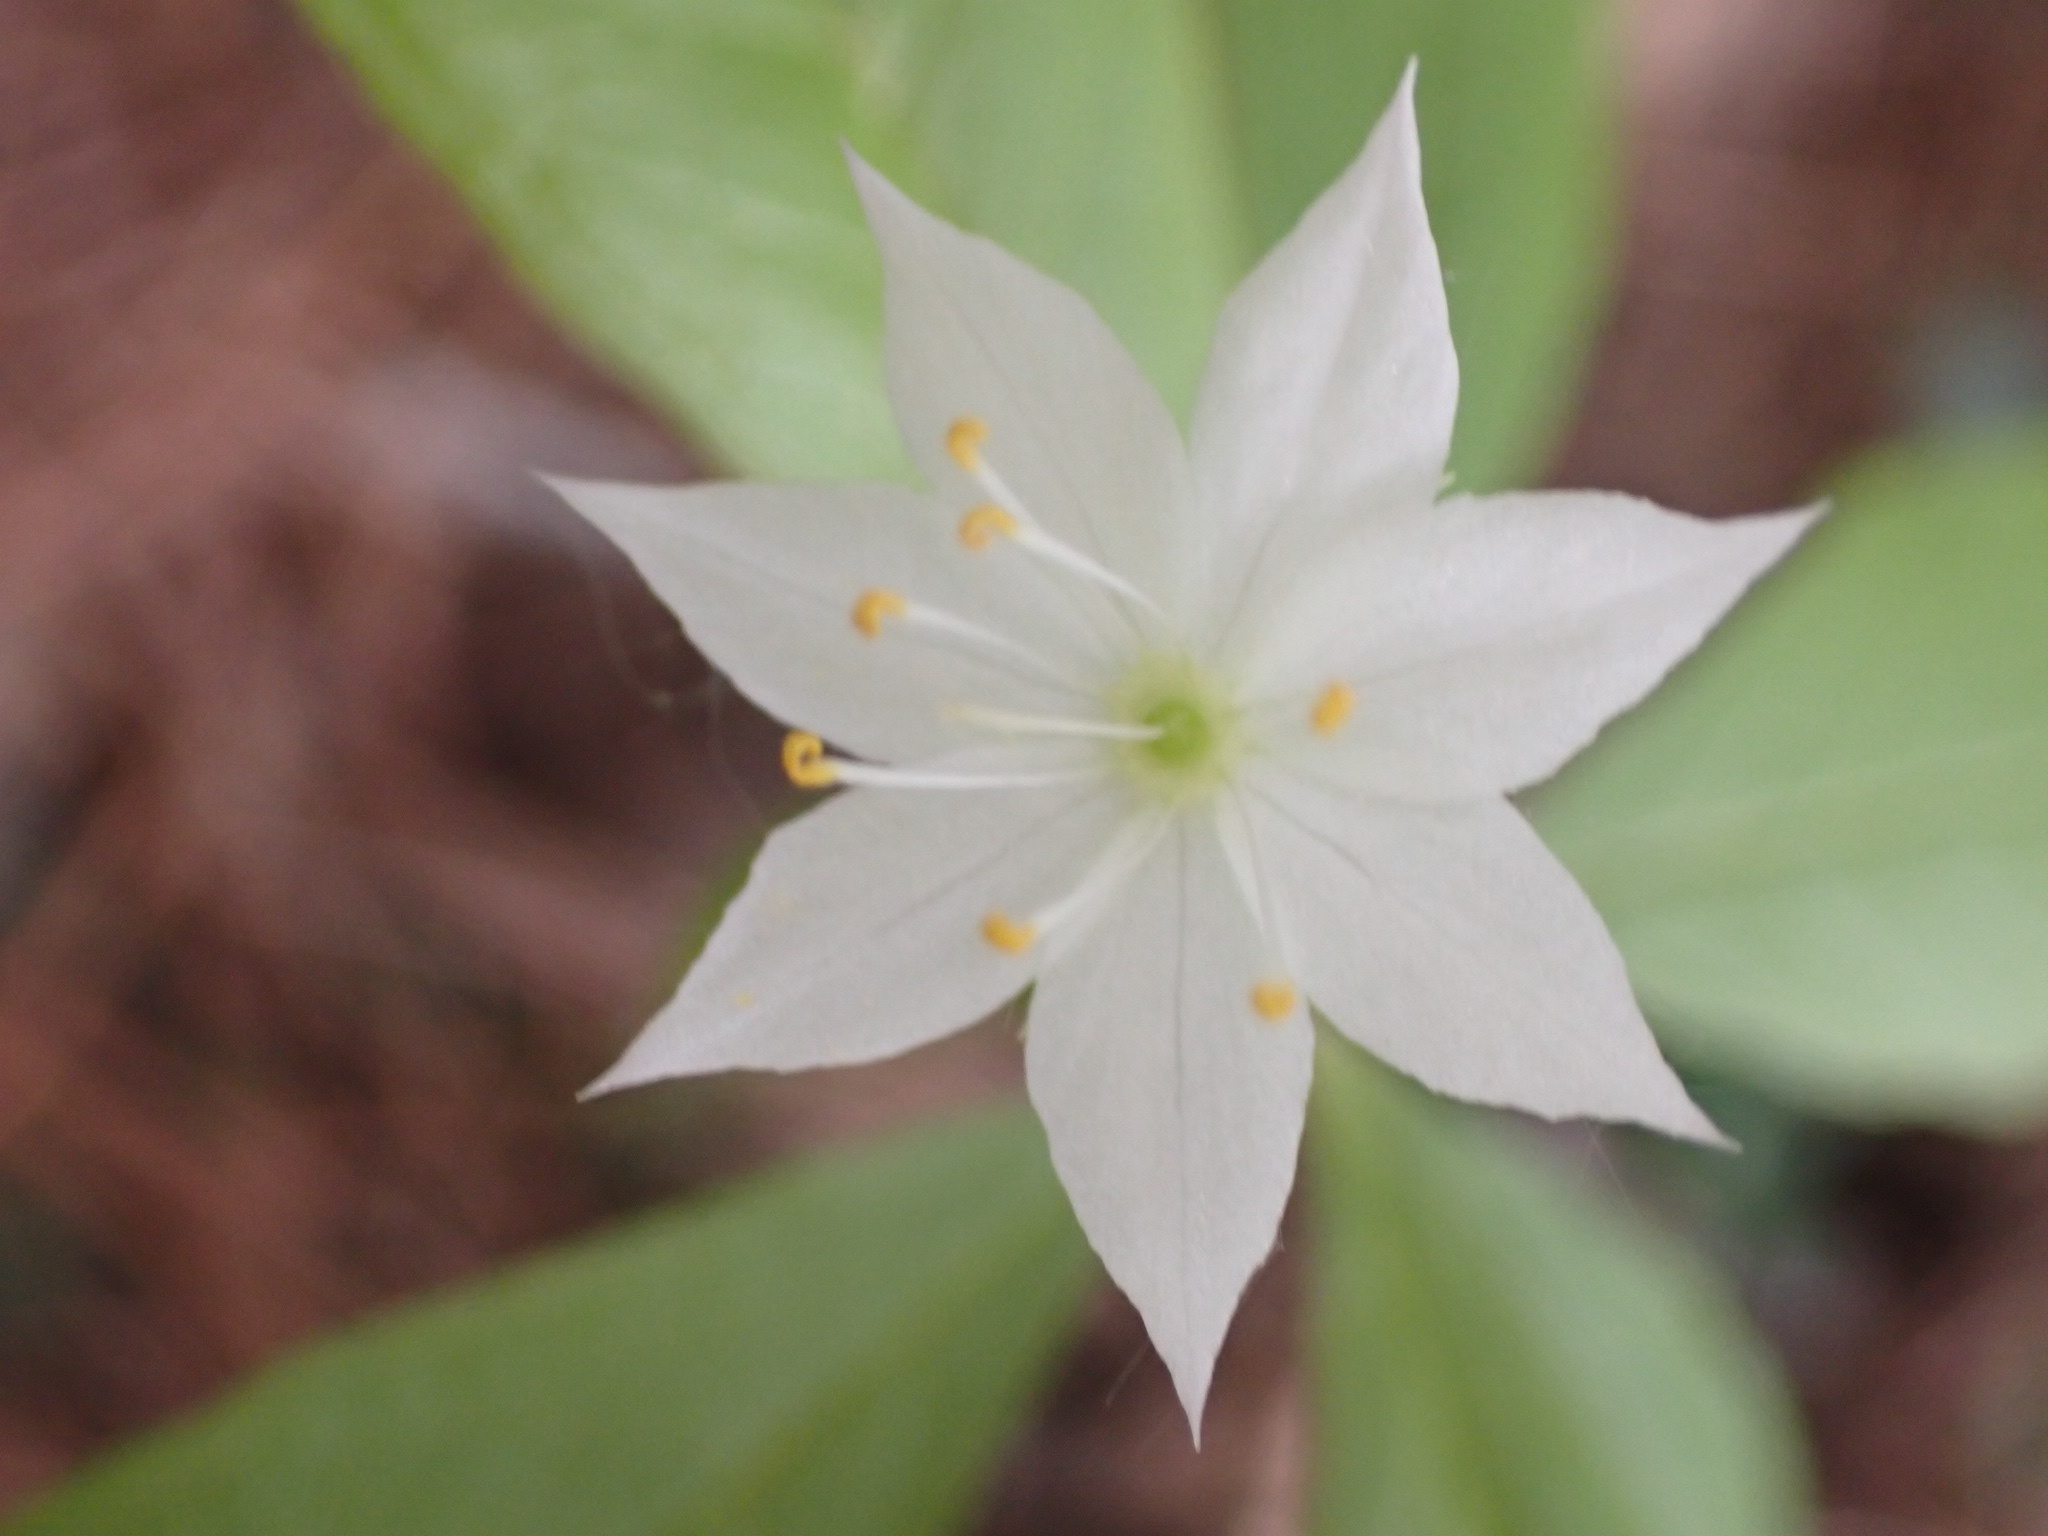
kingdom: Plantae
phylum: Tracheophyta
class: Magnoliopsida
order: Ericales
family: Primulaceae
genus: Lysimachia
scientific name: Lysimachia borealis
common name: American starflower
